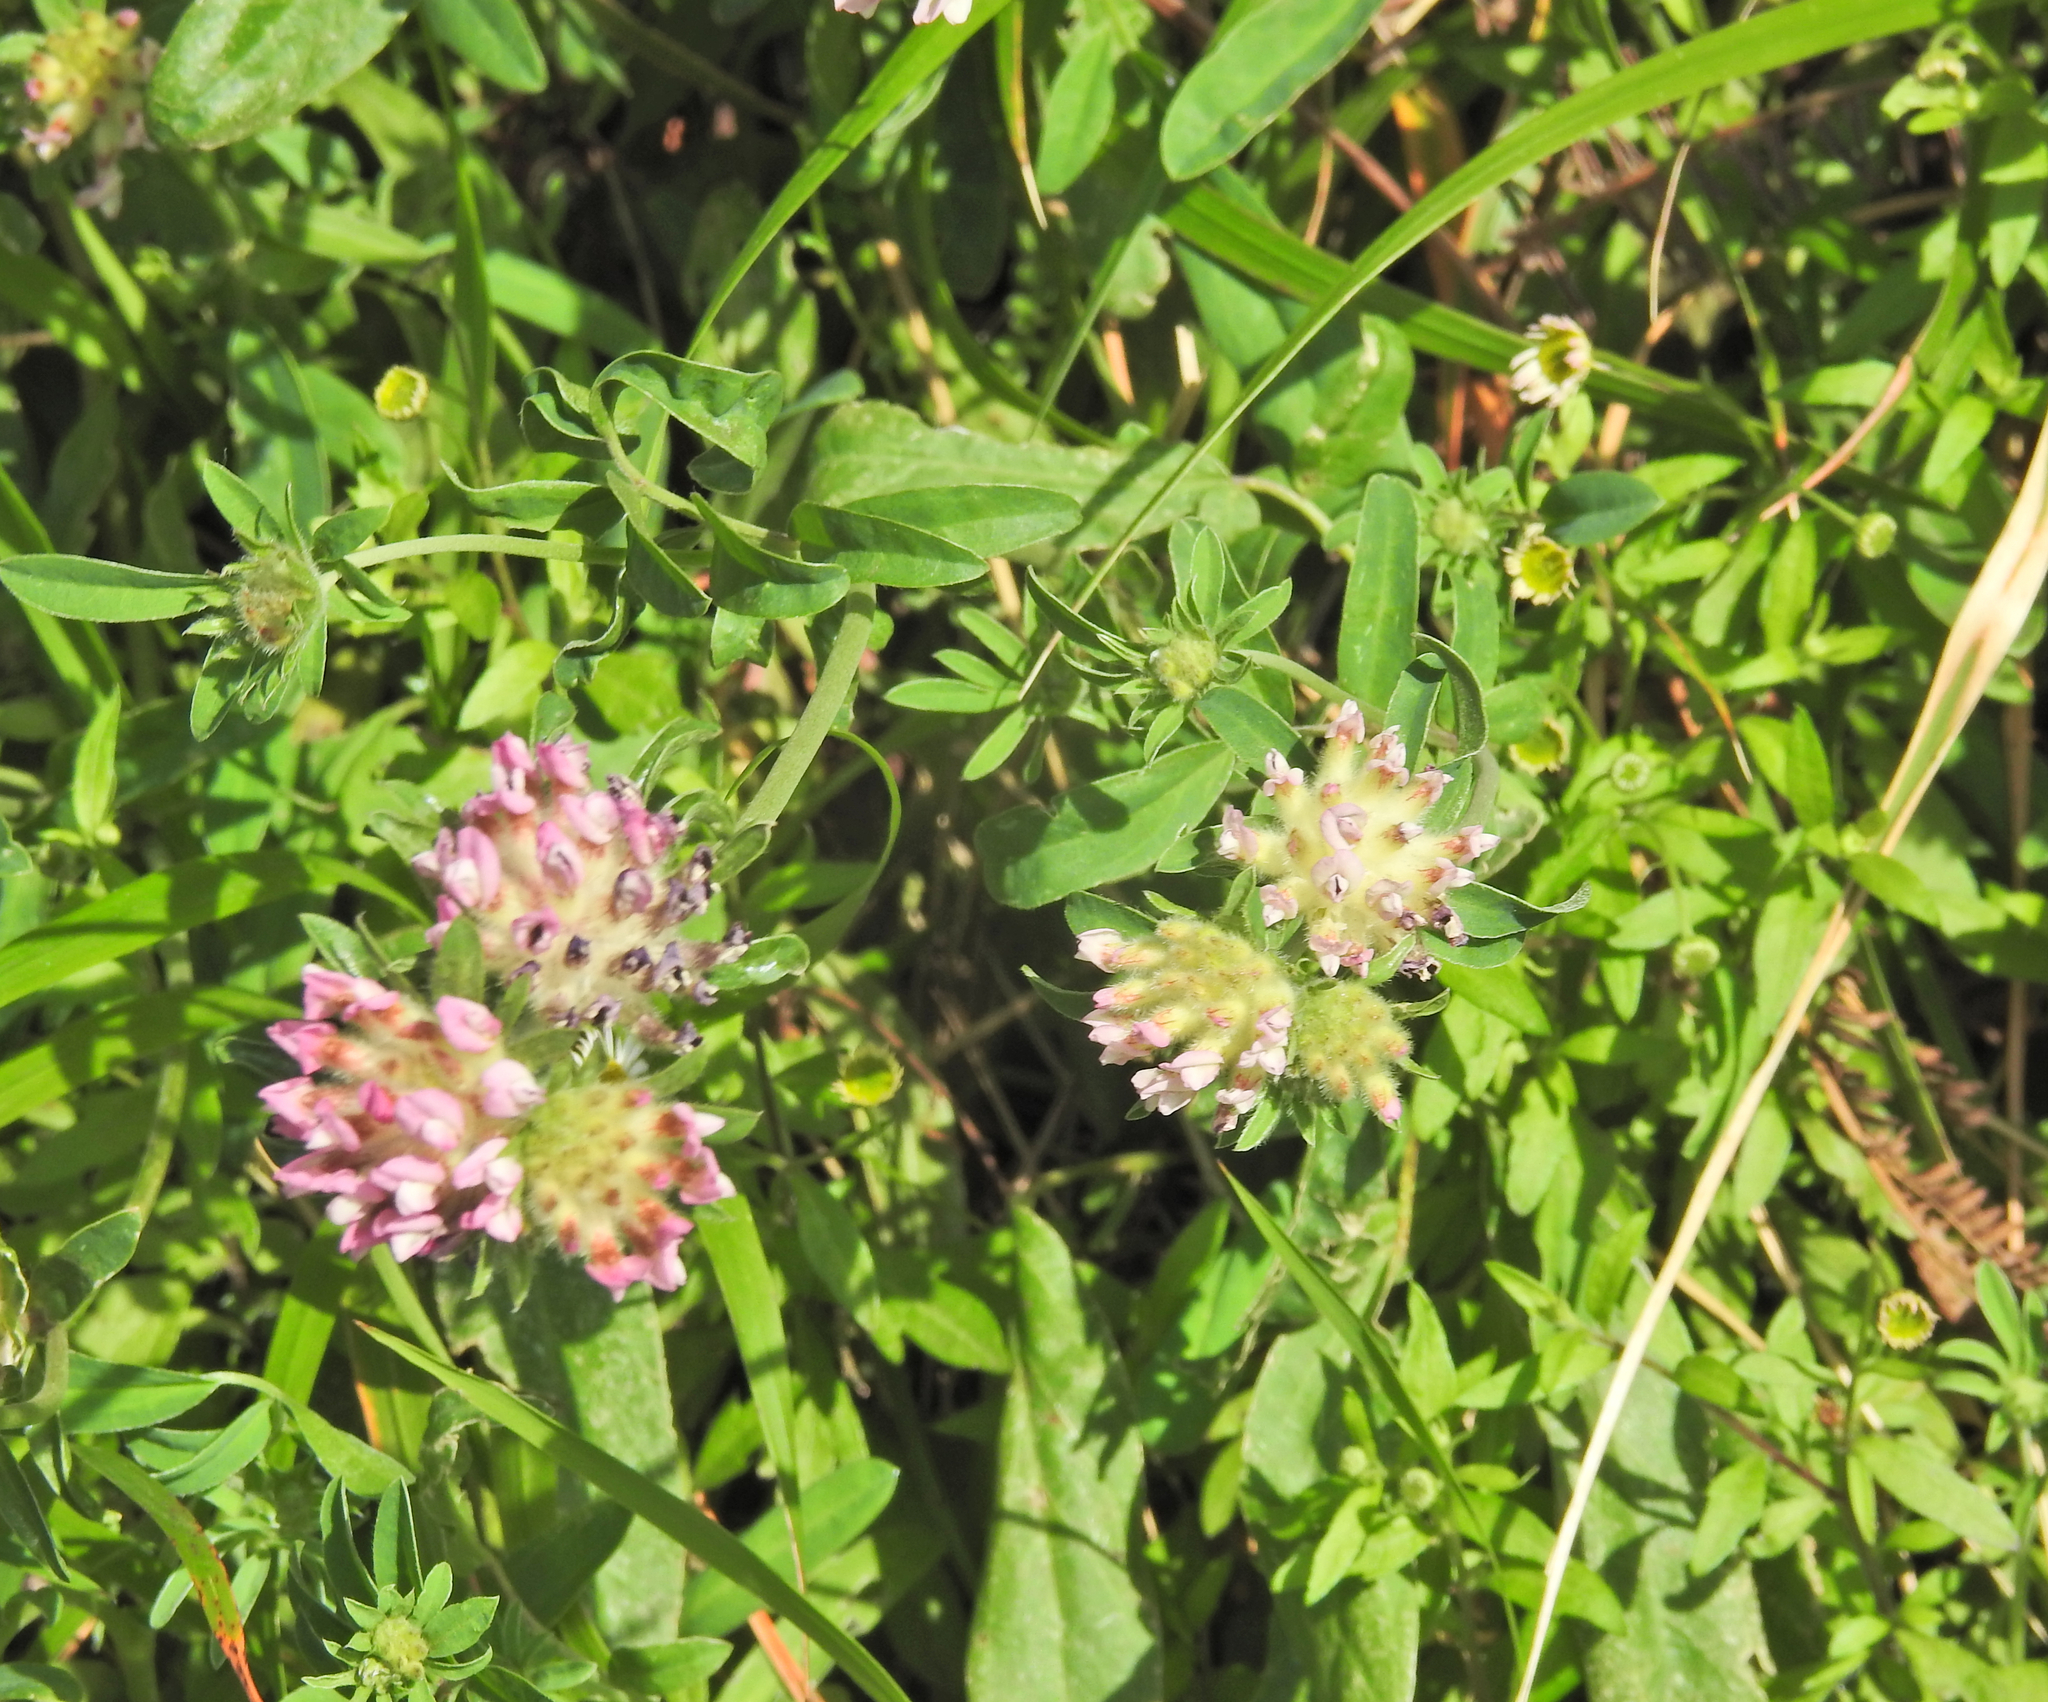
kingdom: Plantae
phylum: Tracheophyta
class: Magnoliopsida
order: Fabales
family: Fabaceae
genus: Anthyllis
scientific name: Anthyllis vulneraria
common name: Kidney vetch
